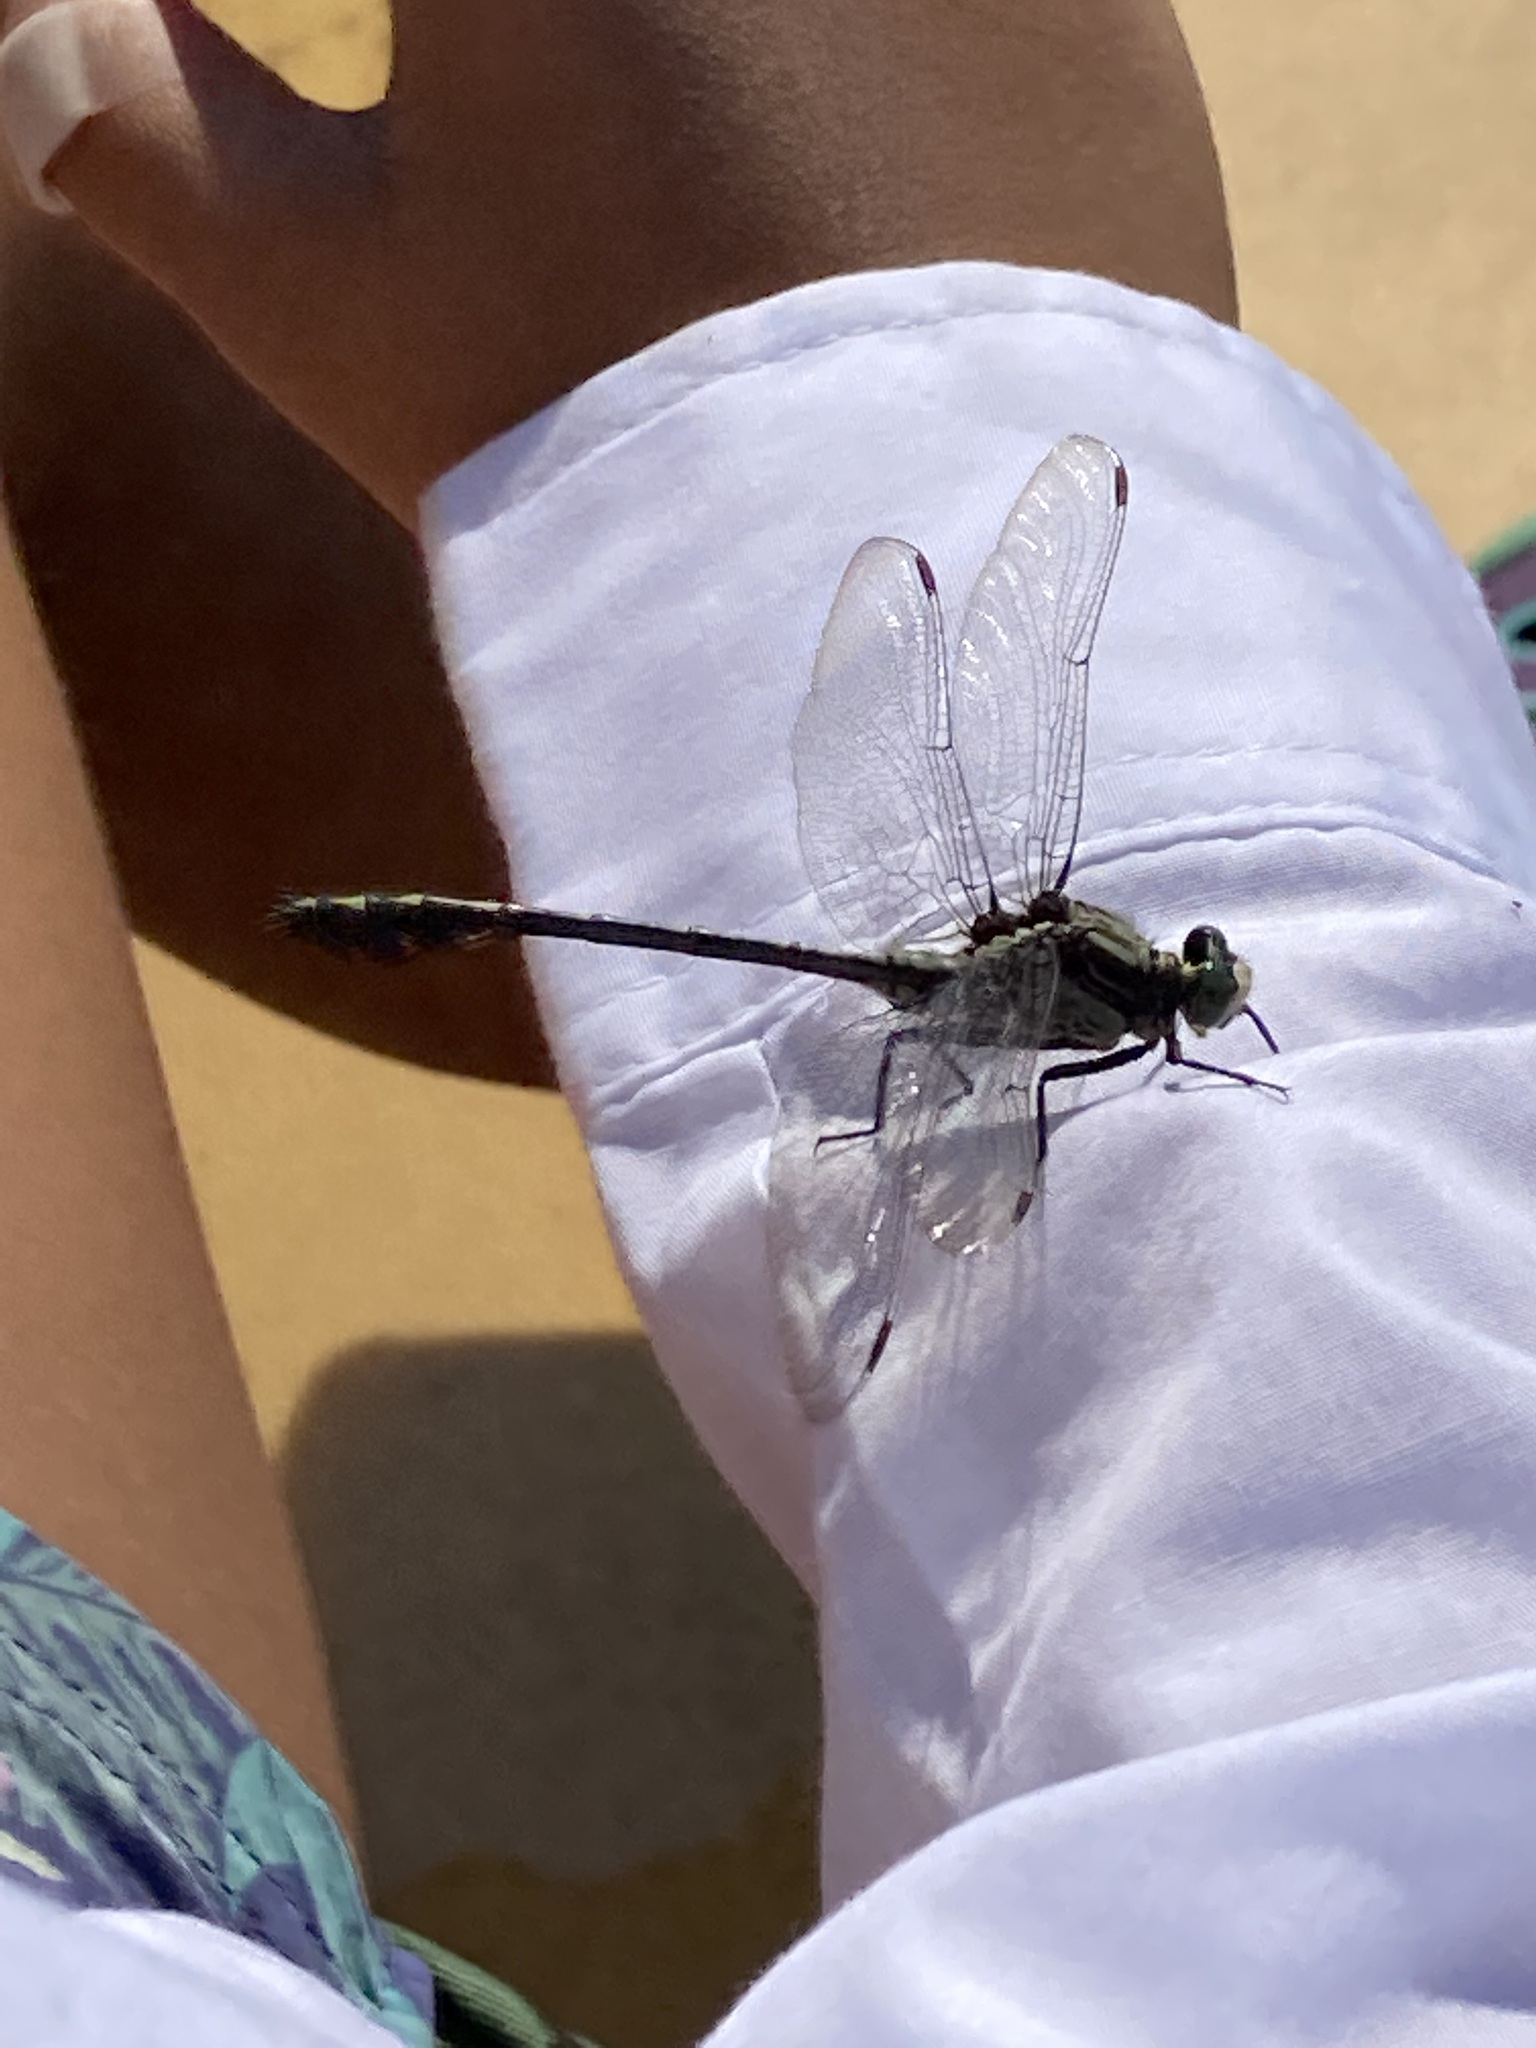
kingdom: Animalia
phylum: Arthropoda
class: Insecta
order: Odonata
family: Gomphidae
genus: Dromogomphus
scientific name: Dromogomphus spinosus
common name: Black-shouldered spinyleg
